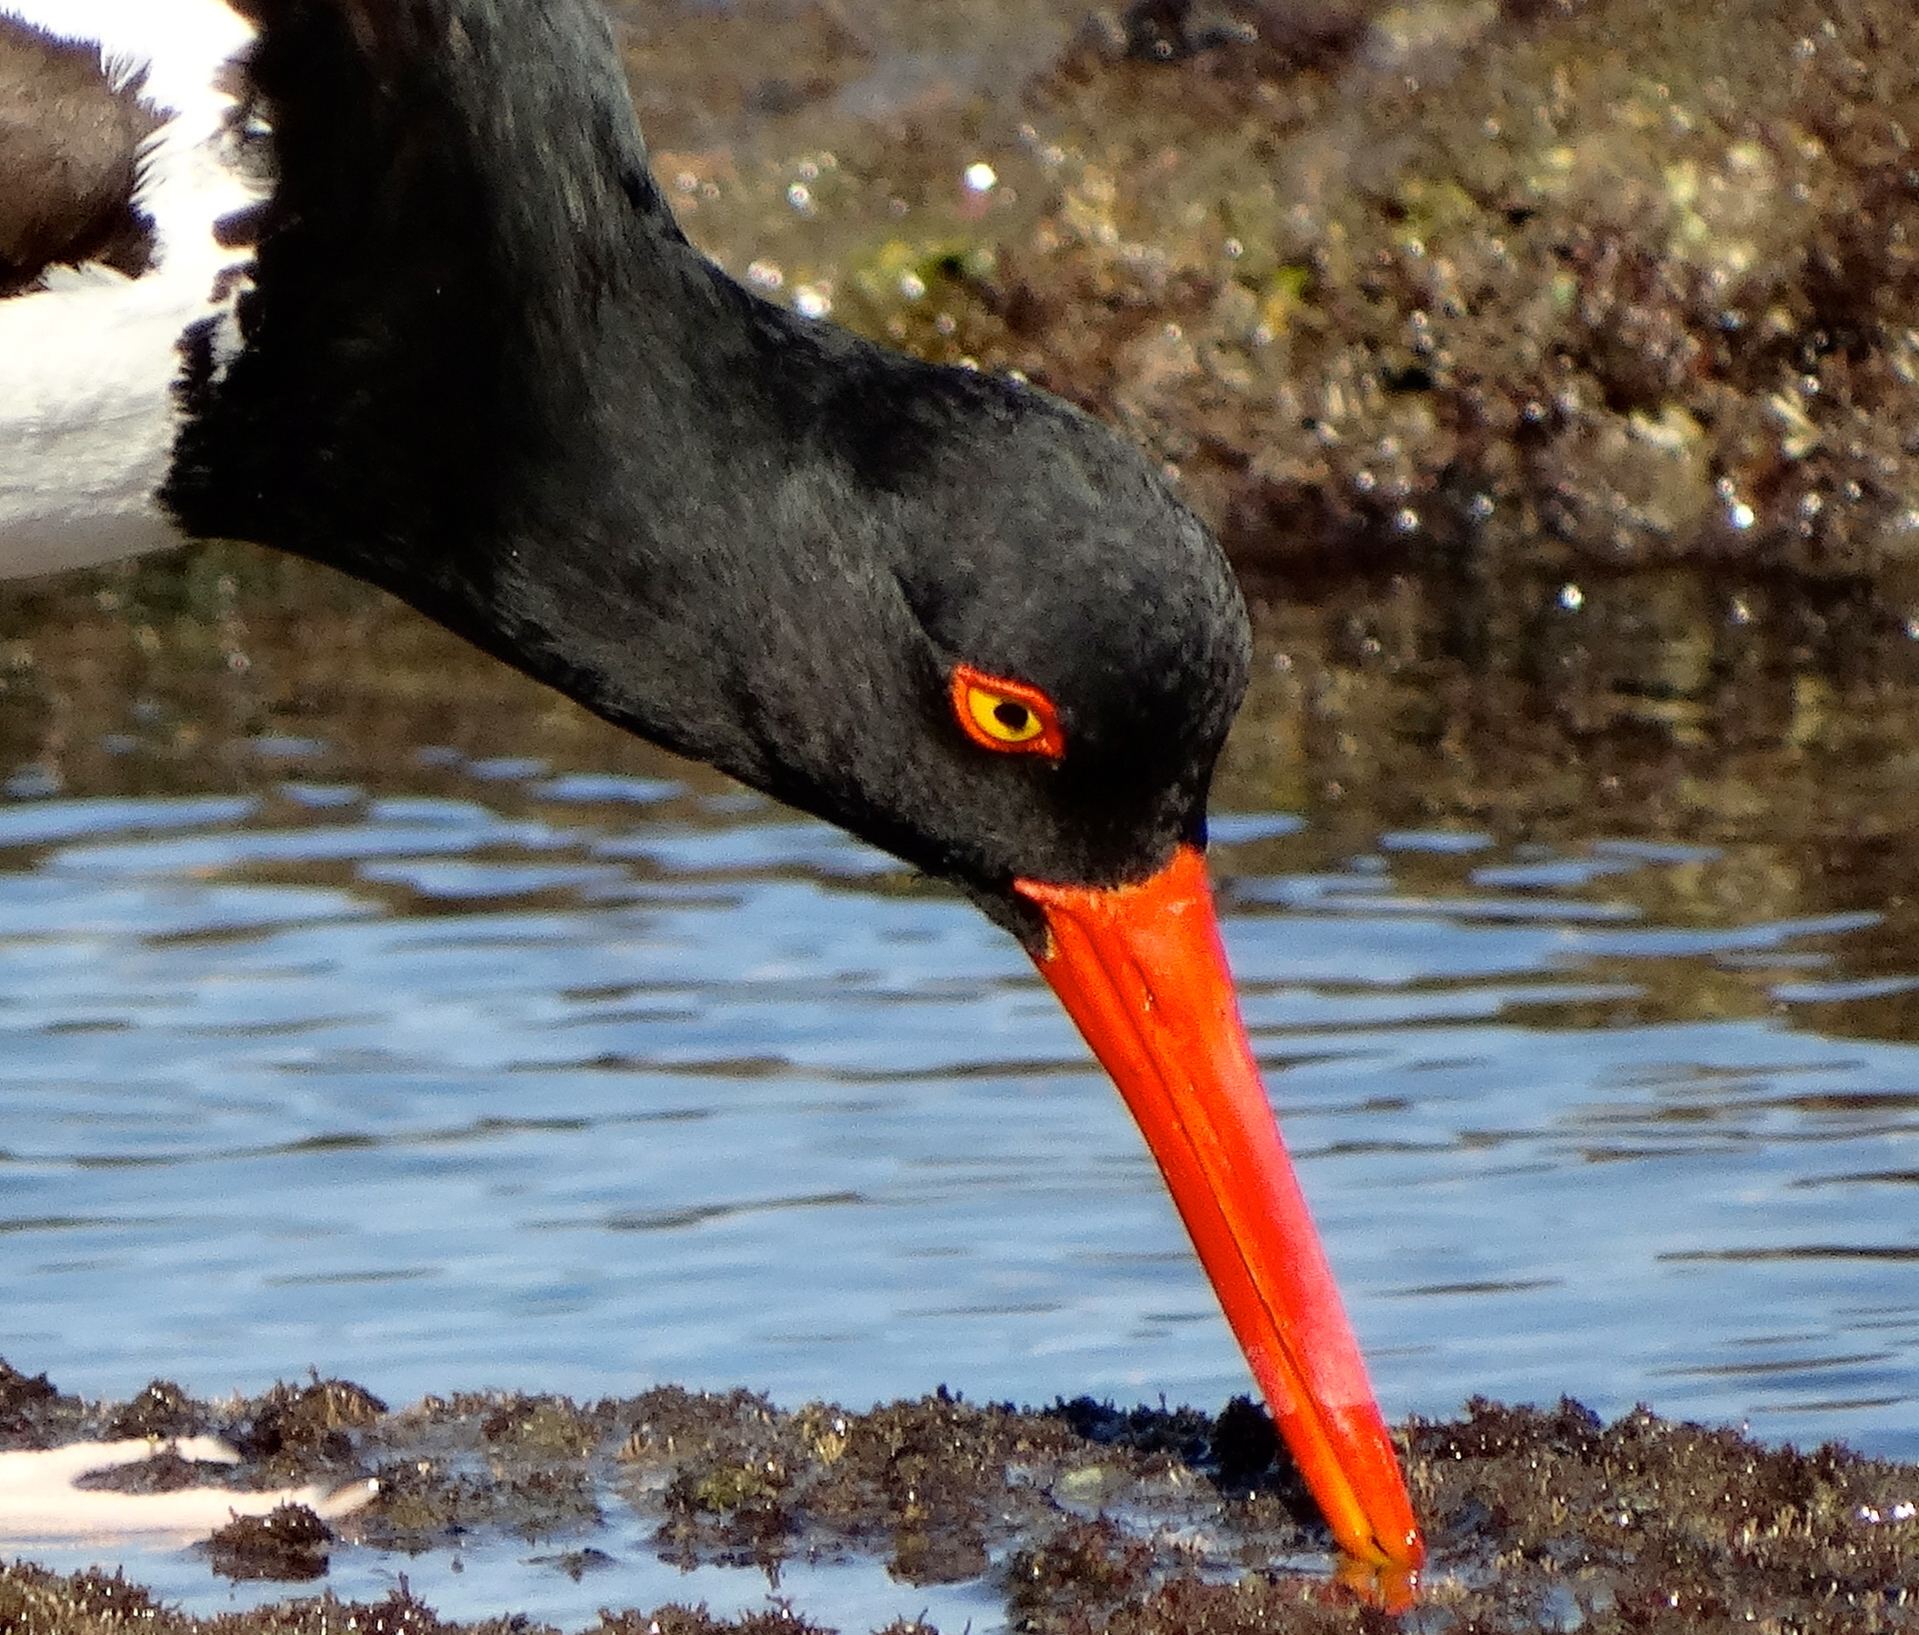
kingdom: Animalia
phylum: Chordata
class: Aves
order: Charadriiformes
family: Haematopodidae
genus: Haematopus
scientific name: Haematopus palliatus
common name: American oystercatcher
